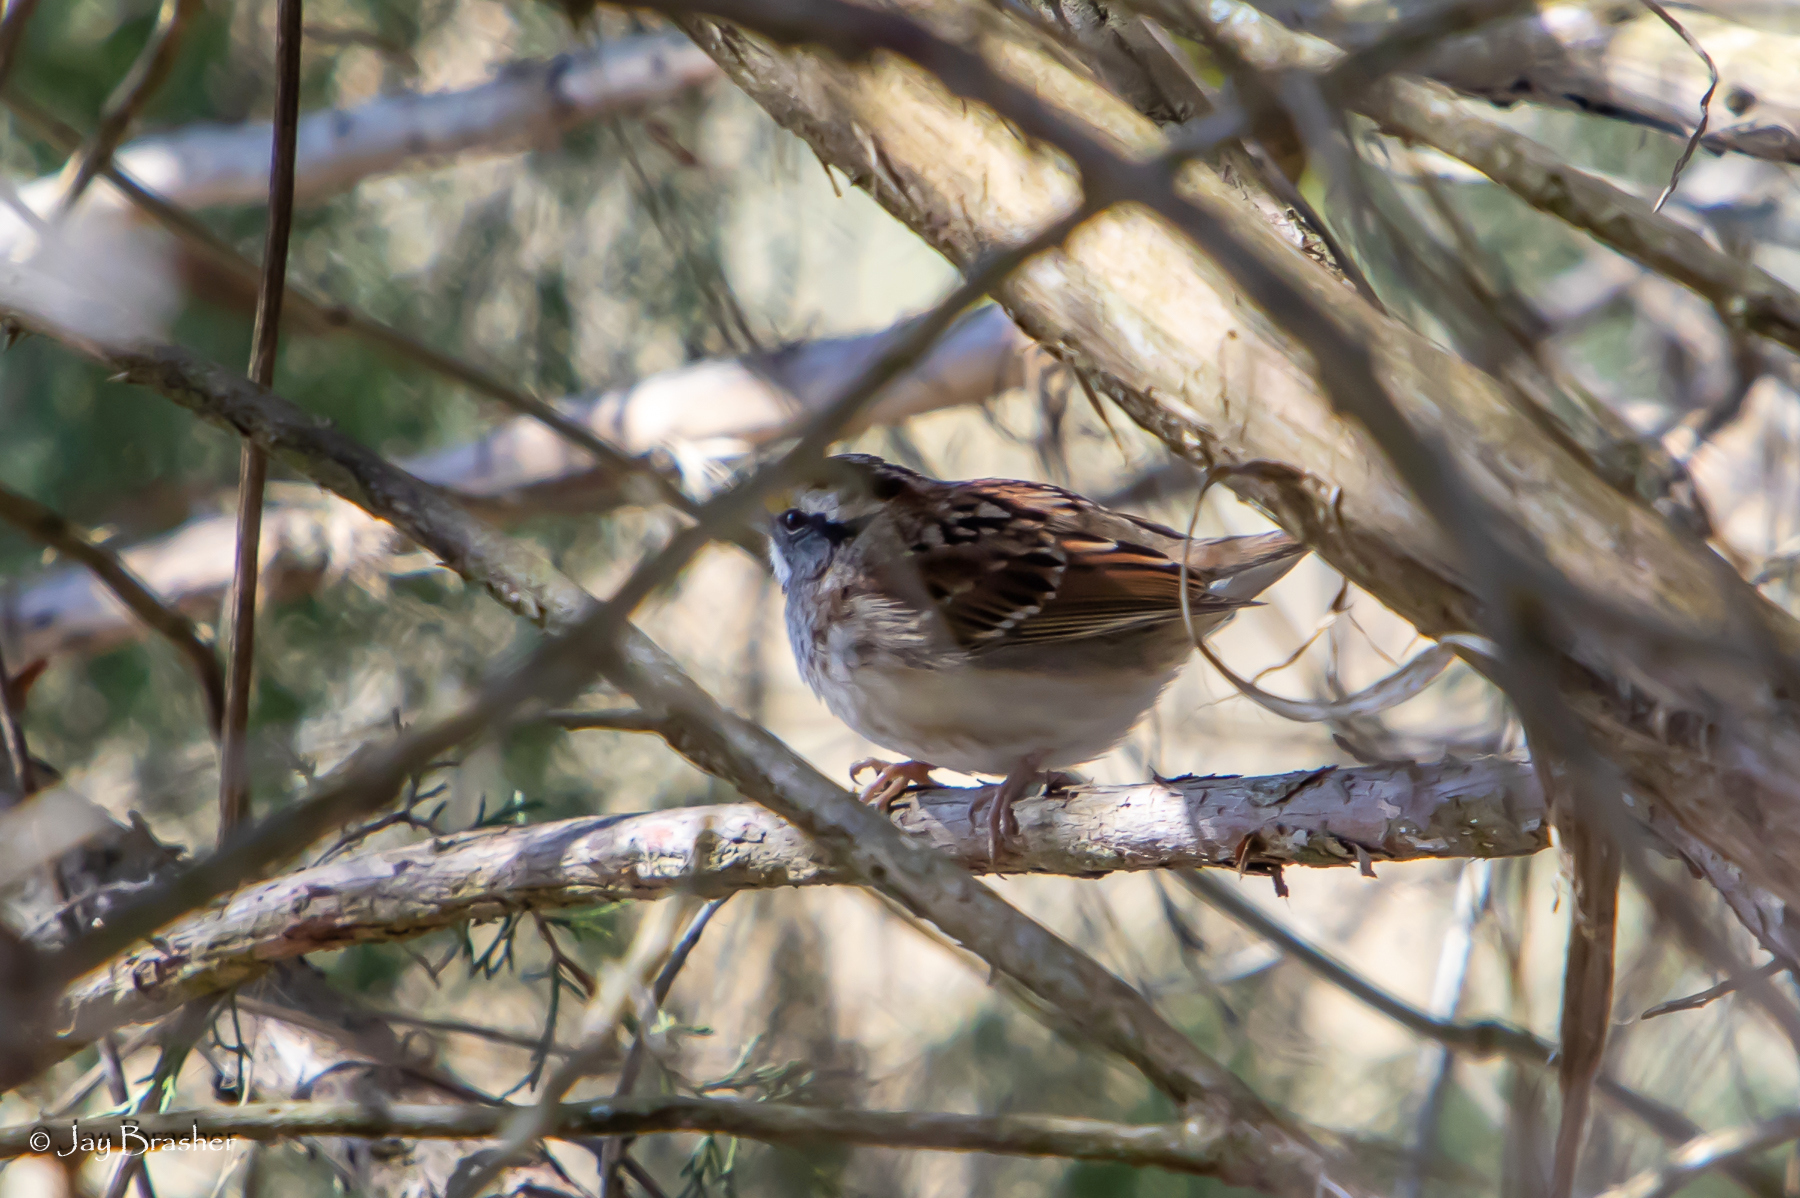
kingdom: Animalia
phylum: Chordata
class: Aves
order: Passeriformes
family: Passerellidae
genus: Zonotrichia
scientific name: Zonotrichia albicollis
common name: White-throated sparrow
